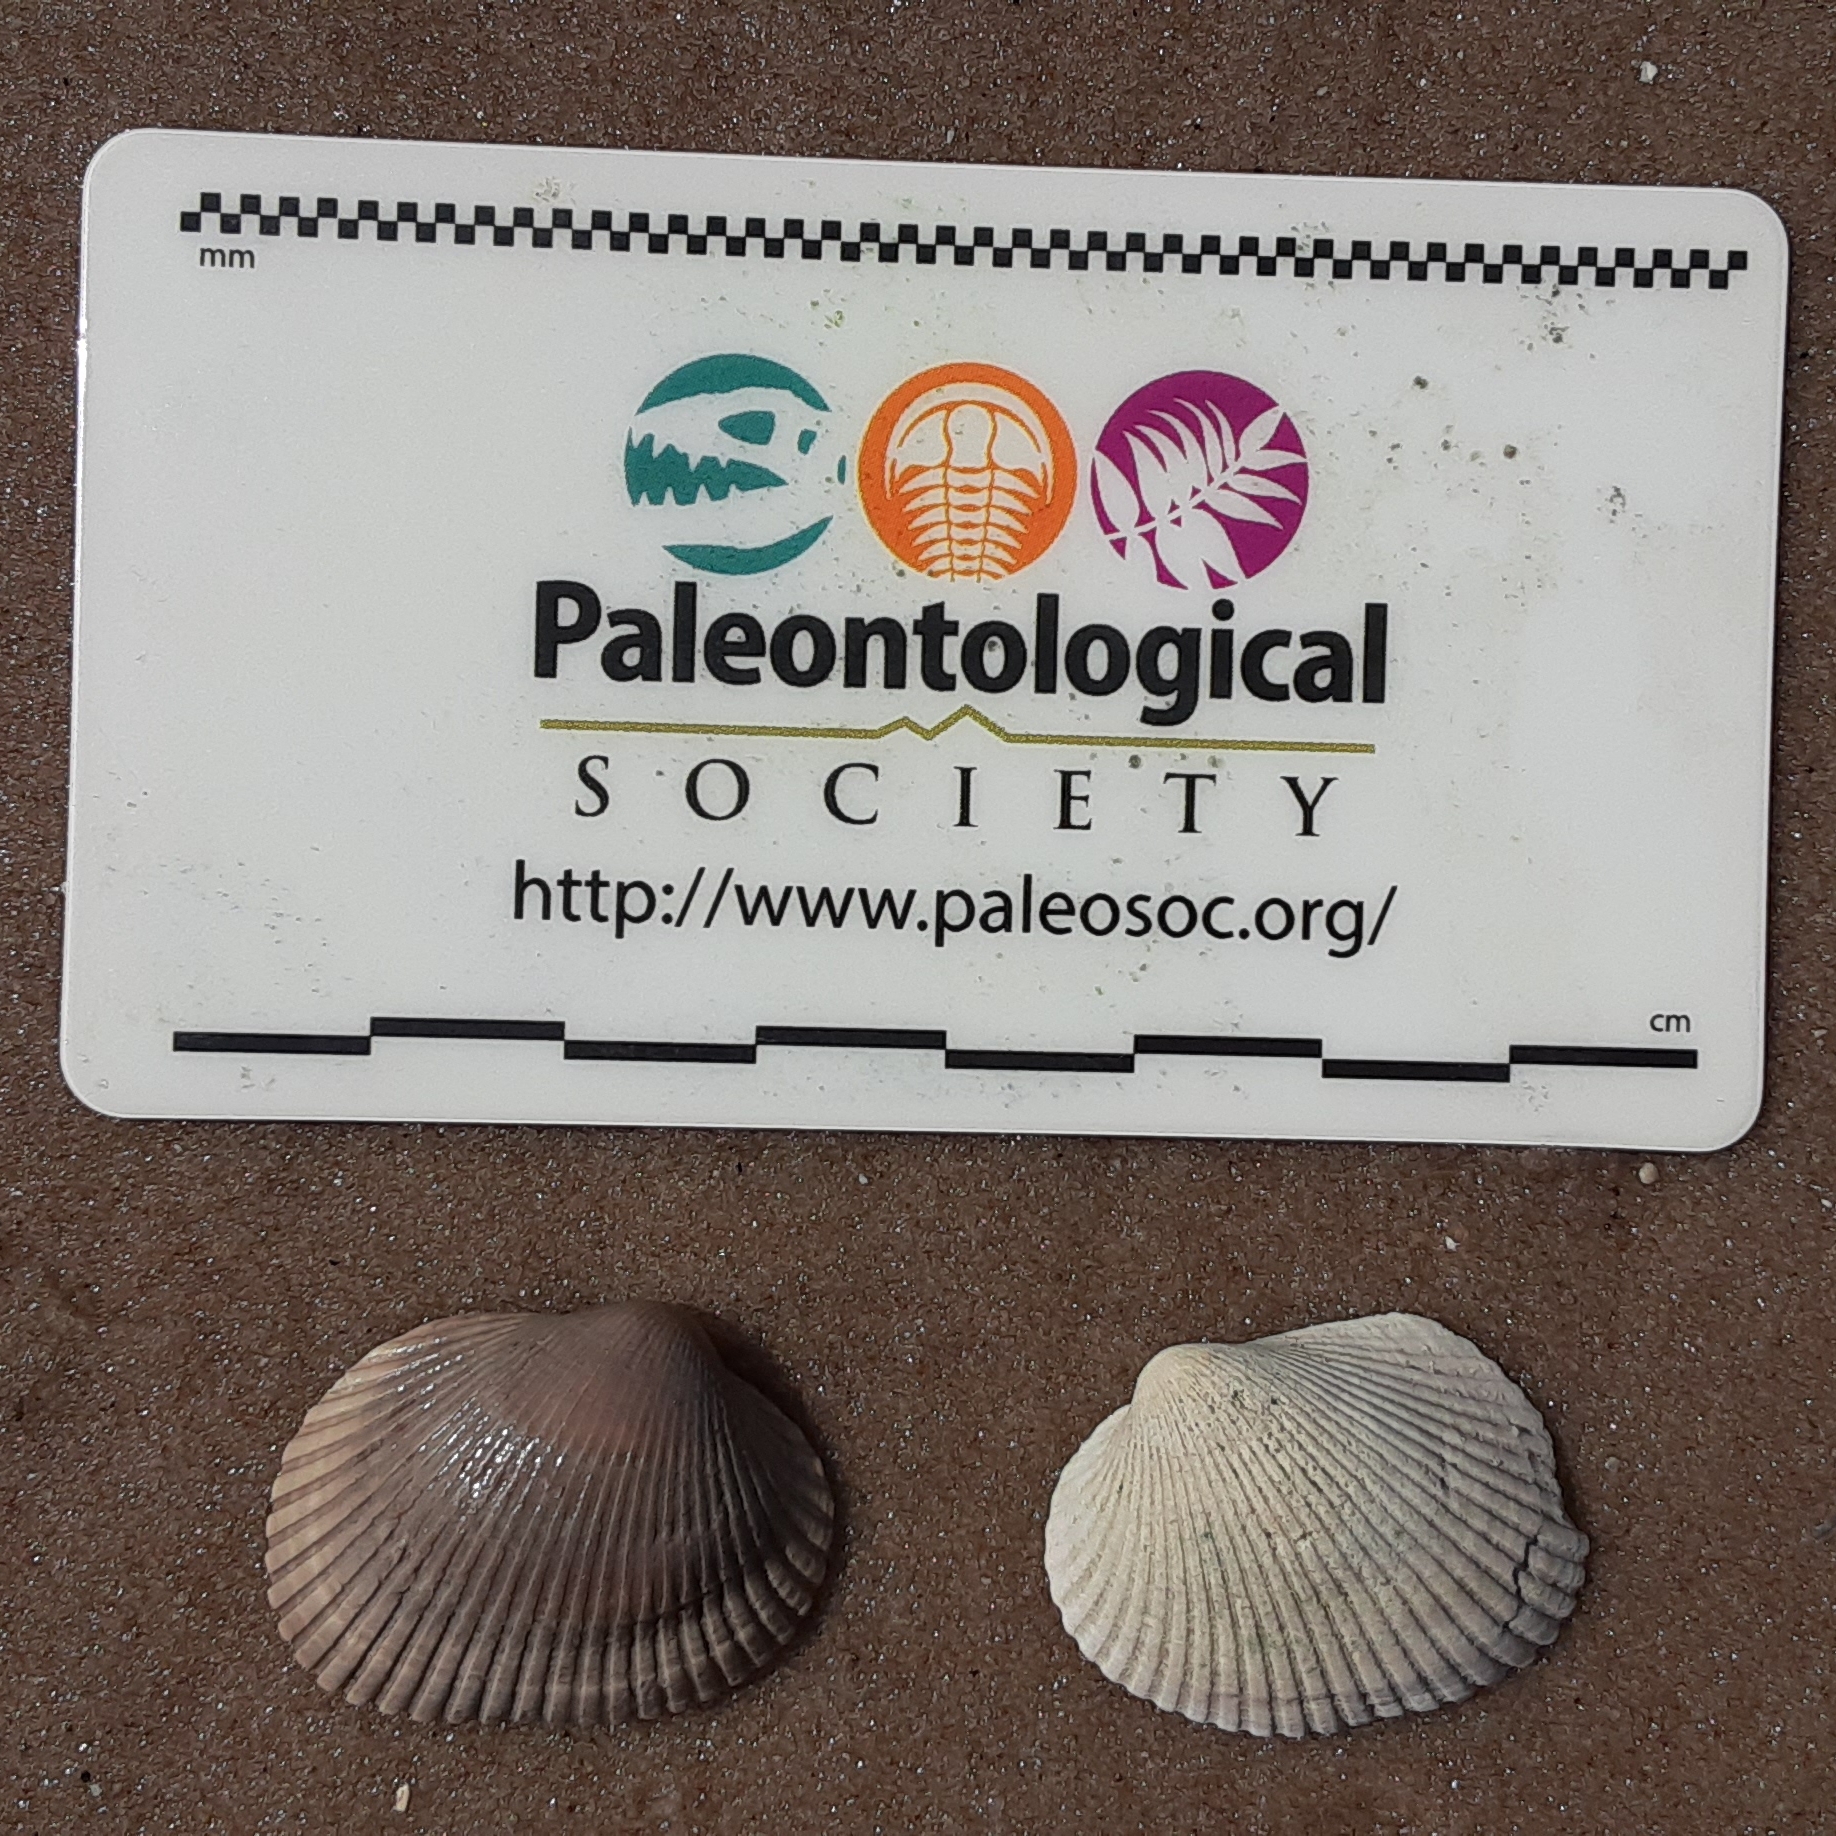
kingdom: Animalia
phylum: Mollusca
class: Bivalvia
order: Arcida
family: Arcidae
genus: Lunarca
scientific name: Lunarca ovalis
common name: Blood ark
